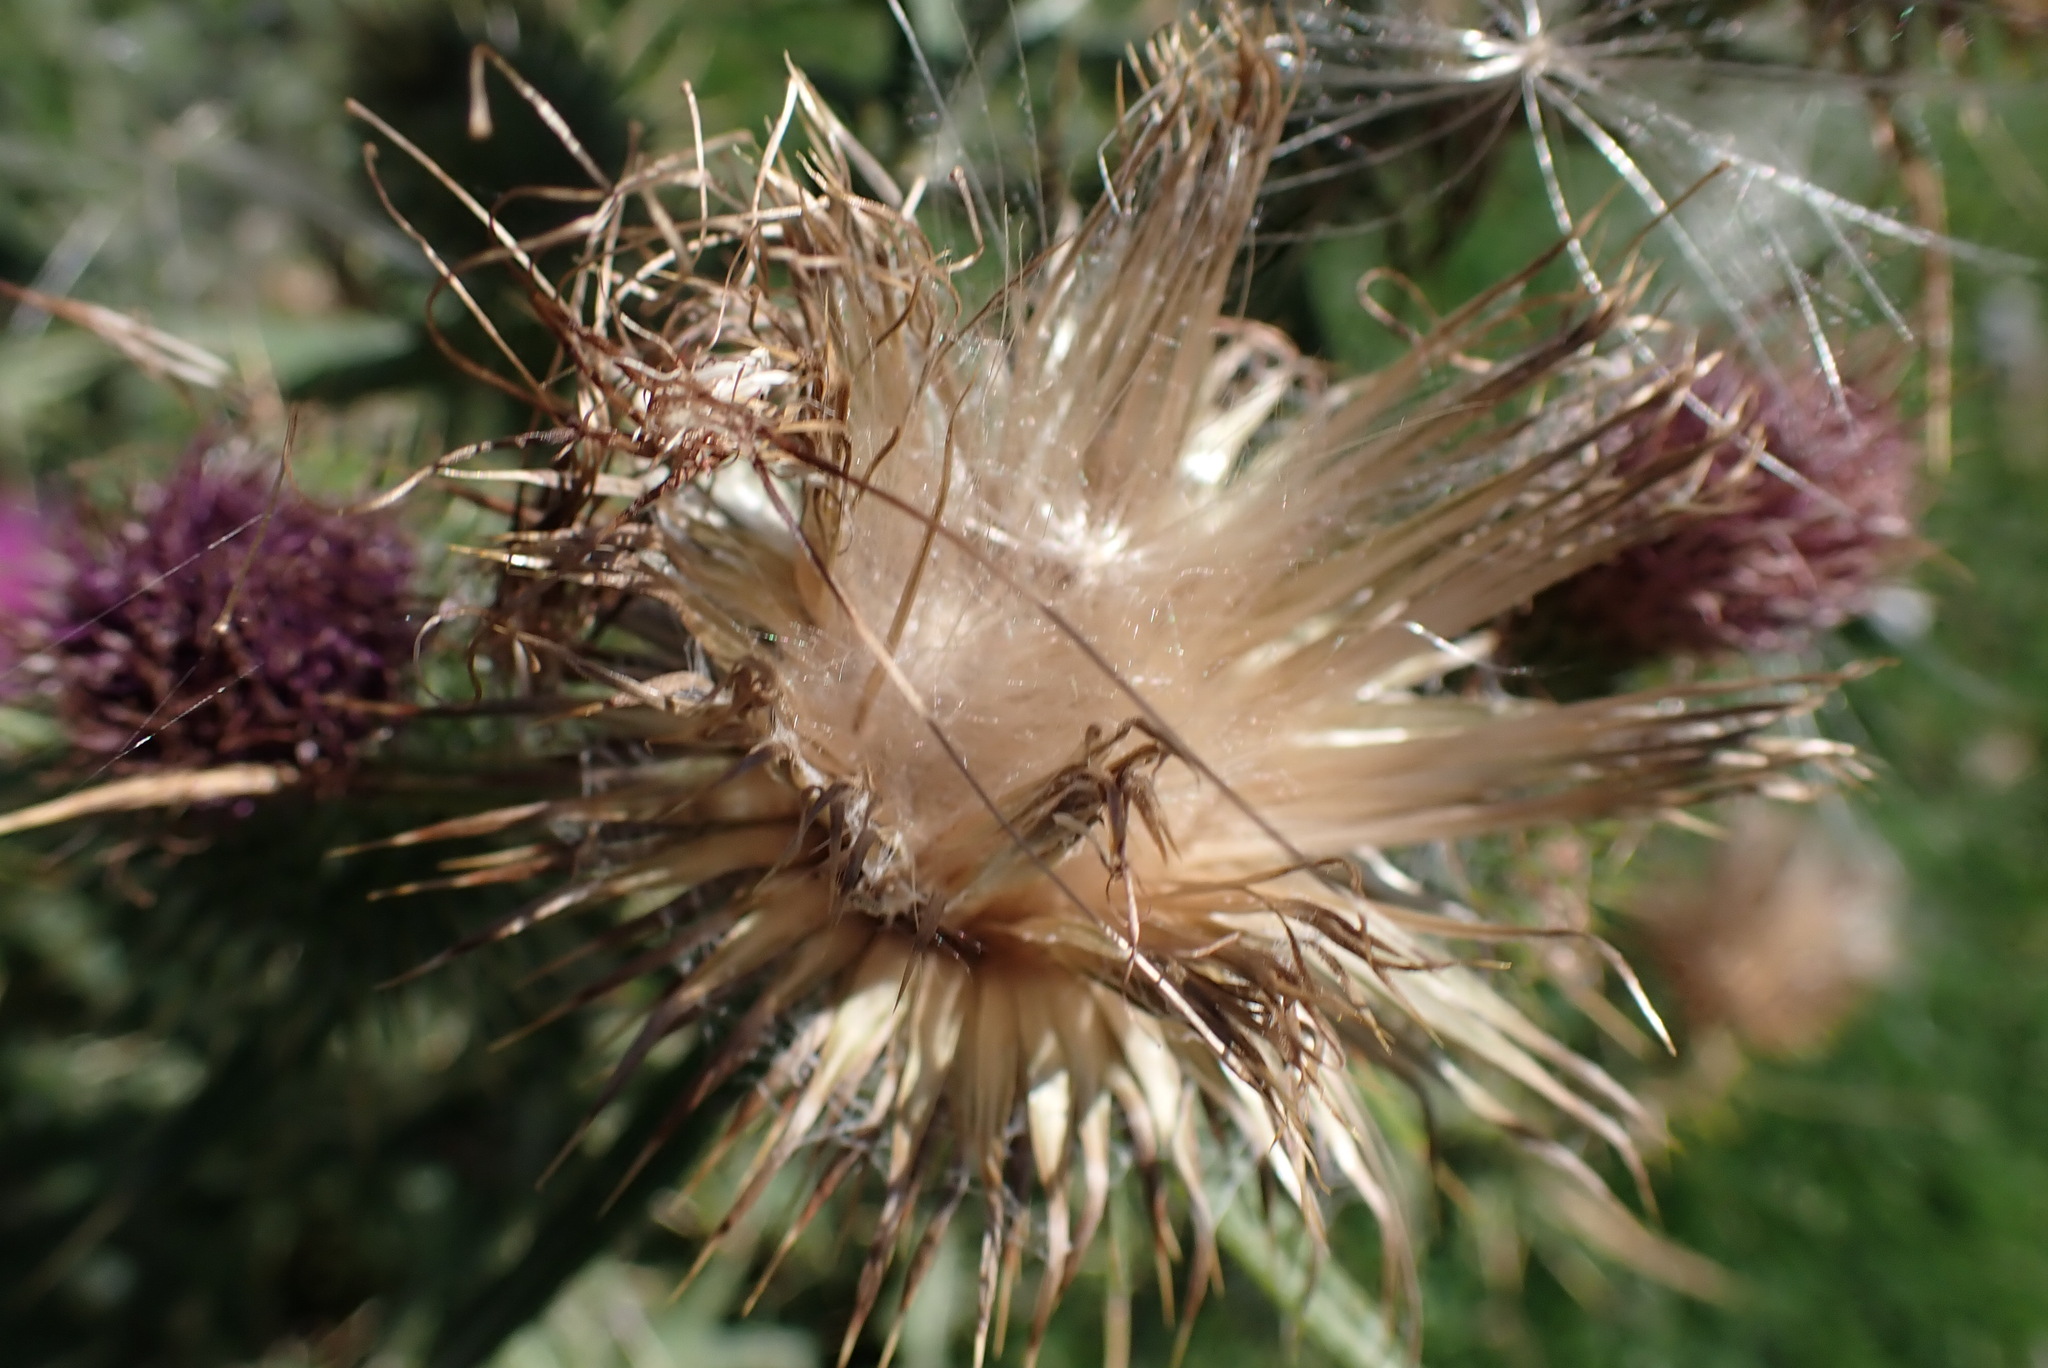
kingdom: Plantae
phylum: Tracheophyta
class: Magnoliopsida
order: Asterales
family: Asteraceae
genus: Cirsium
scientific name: Cirsium vulgare
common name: Bull thistle
